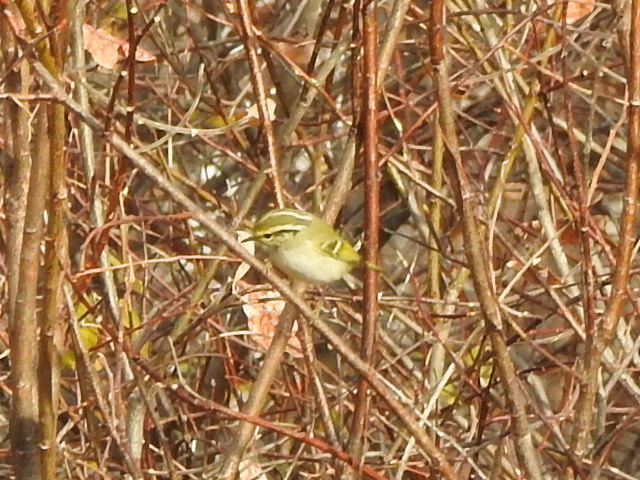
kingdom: Animalia
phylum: Chordata
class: Aves
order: Passeriformes
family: Phylloscopidae
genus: Phylloscopus
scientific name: Phylloscopus proregulus
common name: Pallas's leaf warbler
